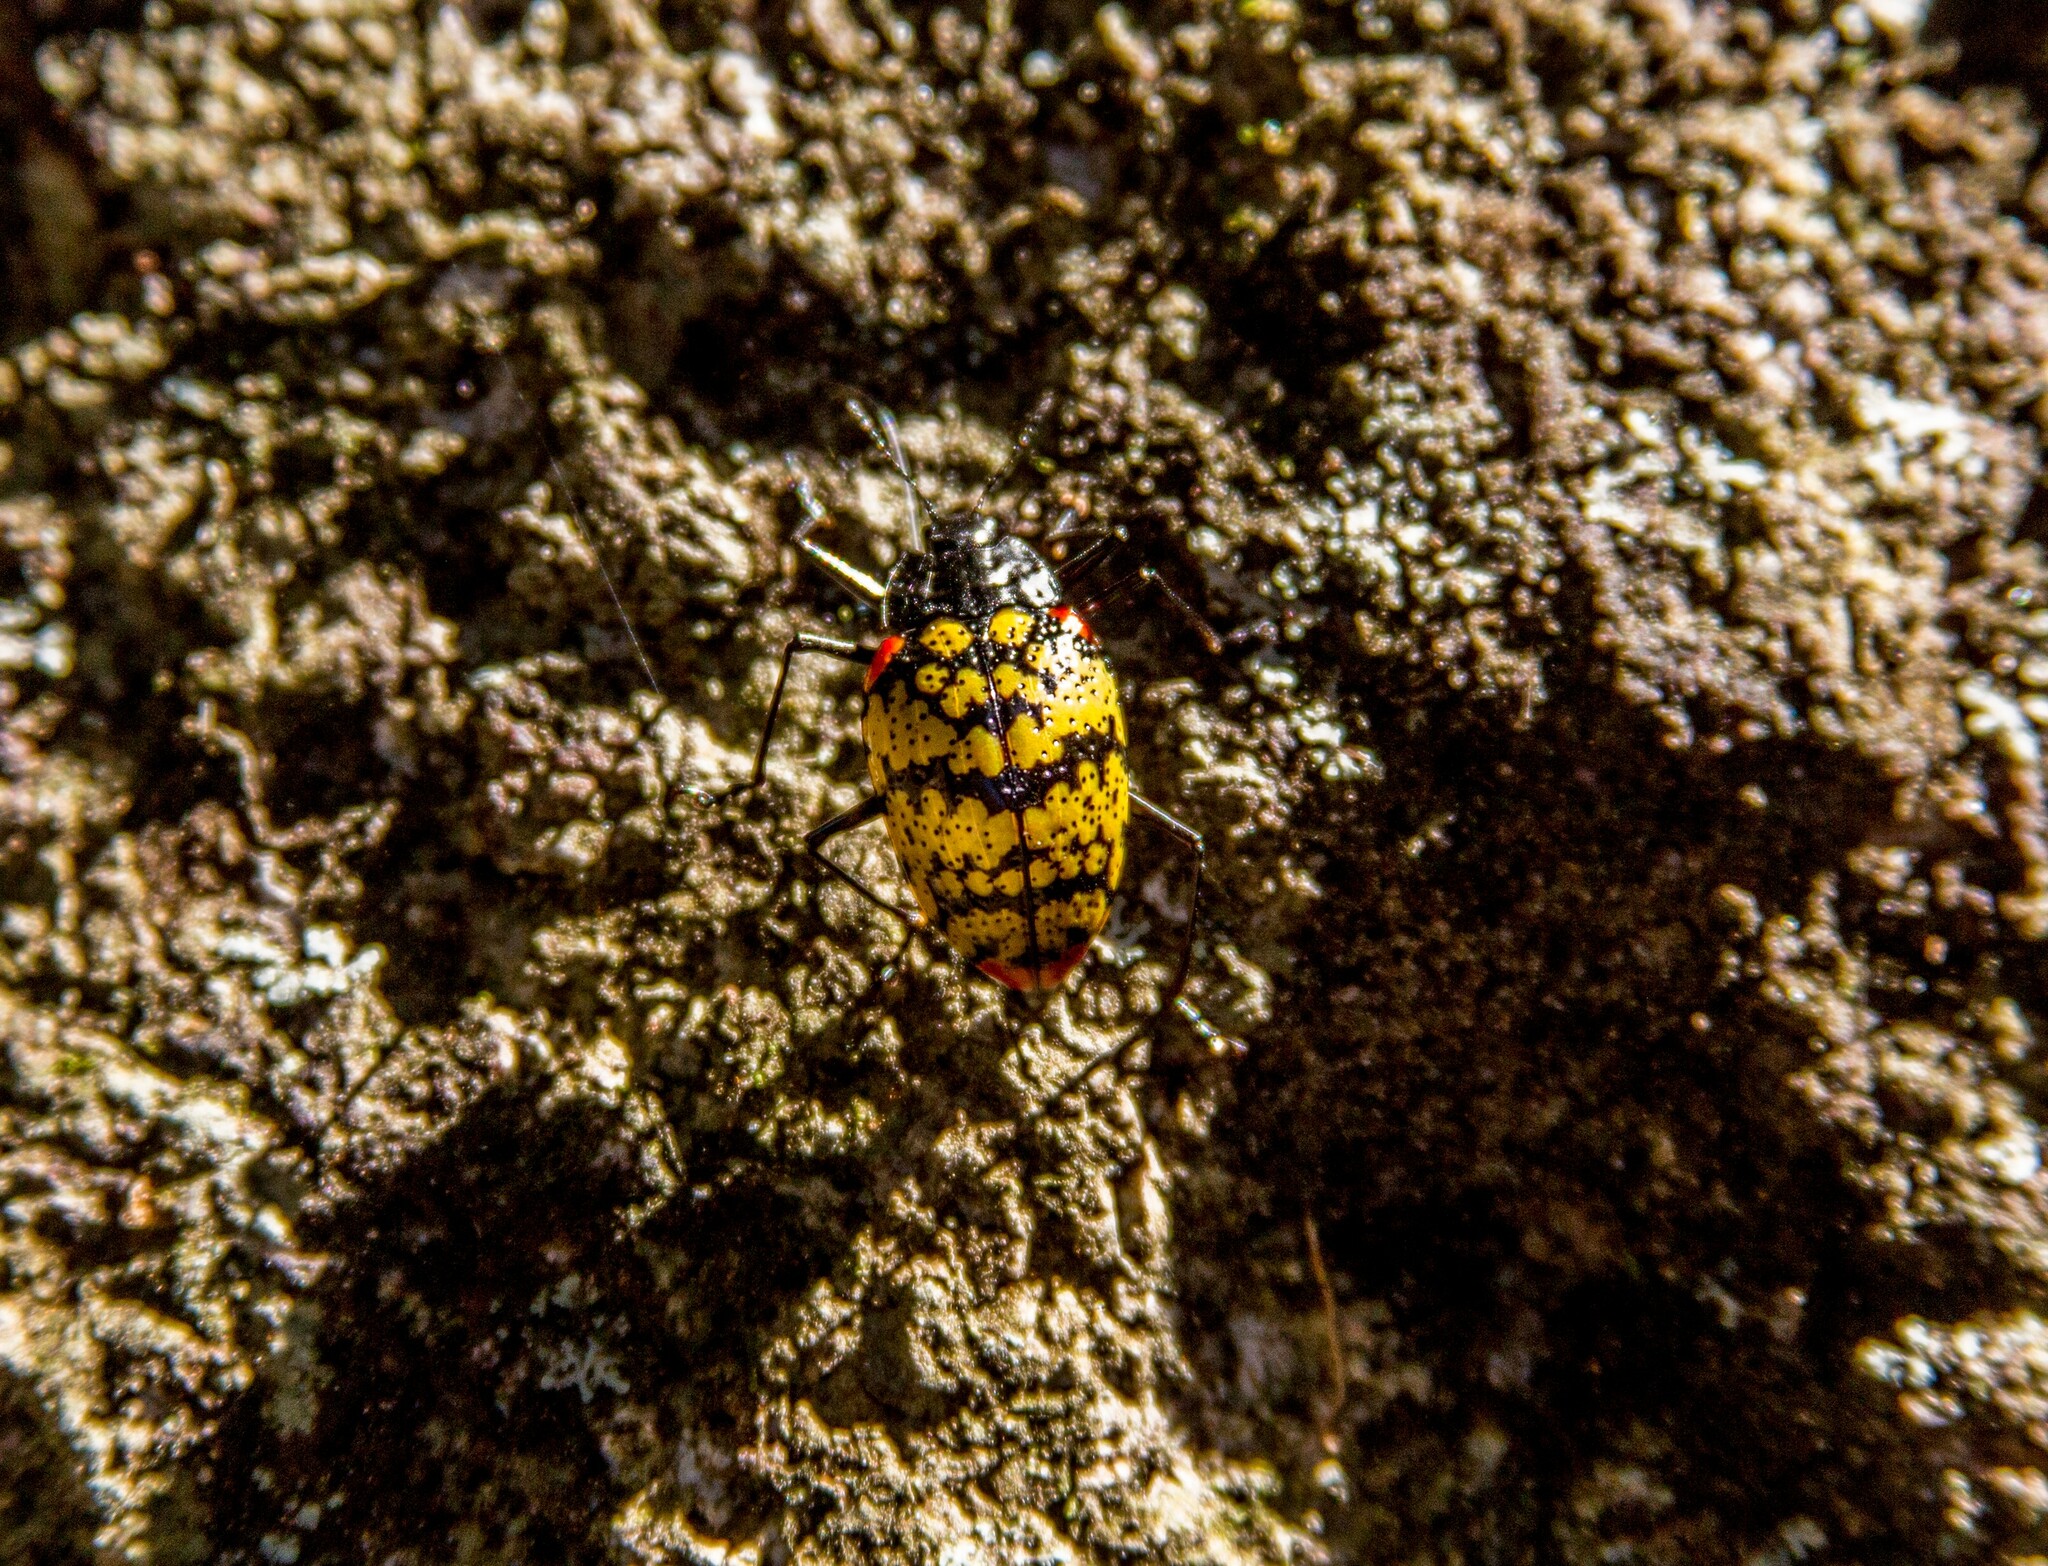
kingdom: Animalia
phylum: Arthropoda
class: Insecta
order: Coleoptera
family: Erotylidae
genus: Erotylus
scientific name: Erotylus
